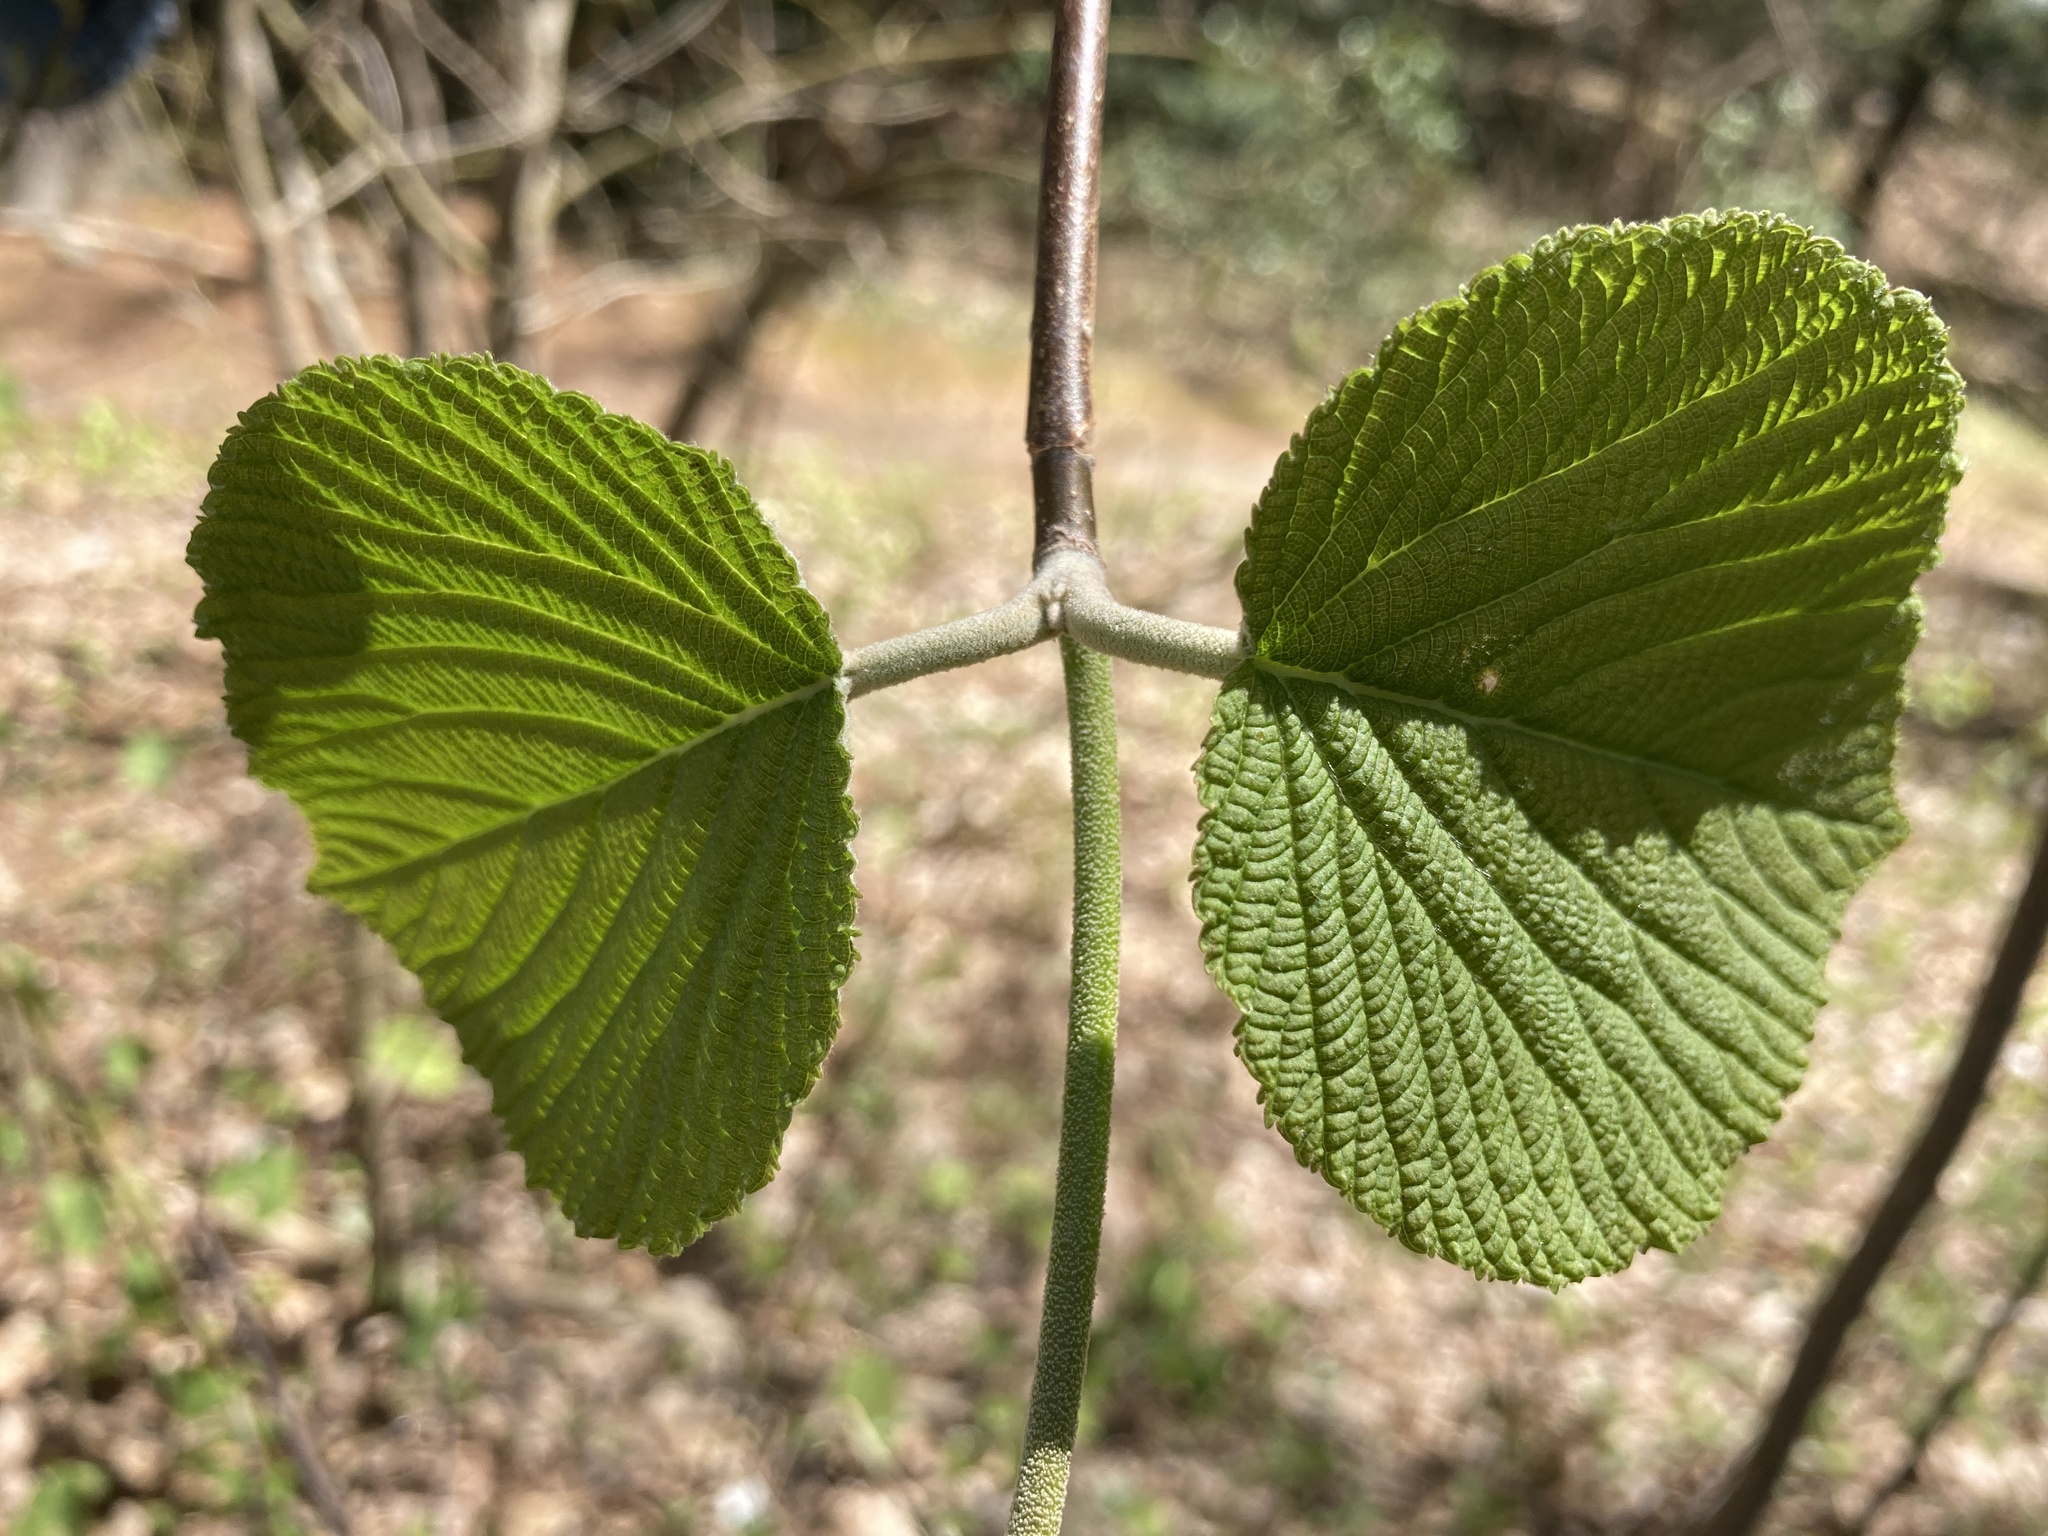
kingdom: Plantae
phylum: Tracheophyta
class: Magnoliopsida
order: Dipsacales
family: Viburnaceae
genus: Viburnum
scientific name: Viburnum lantanoides
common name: Hobblebush
